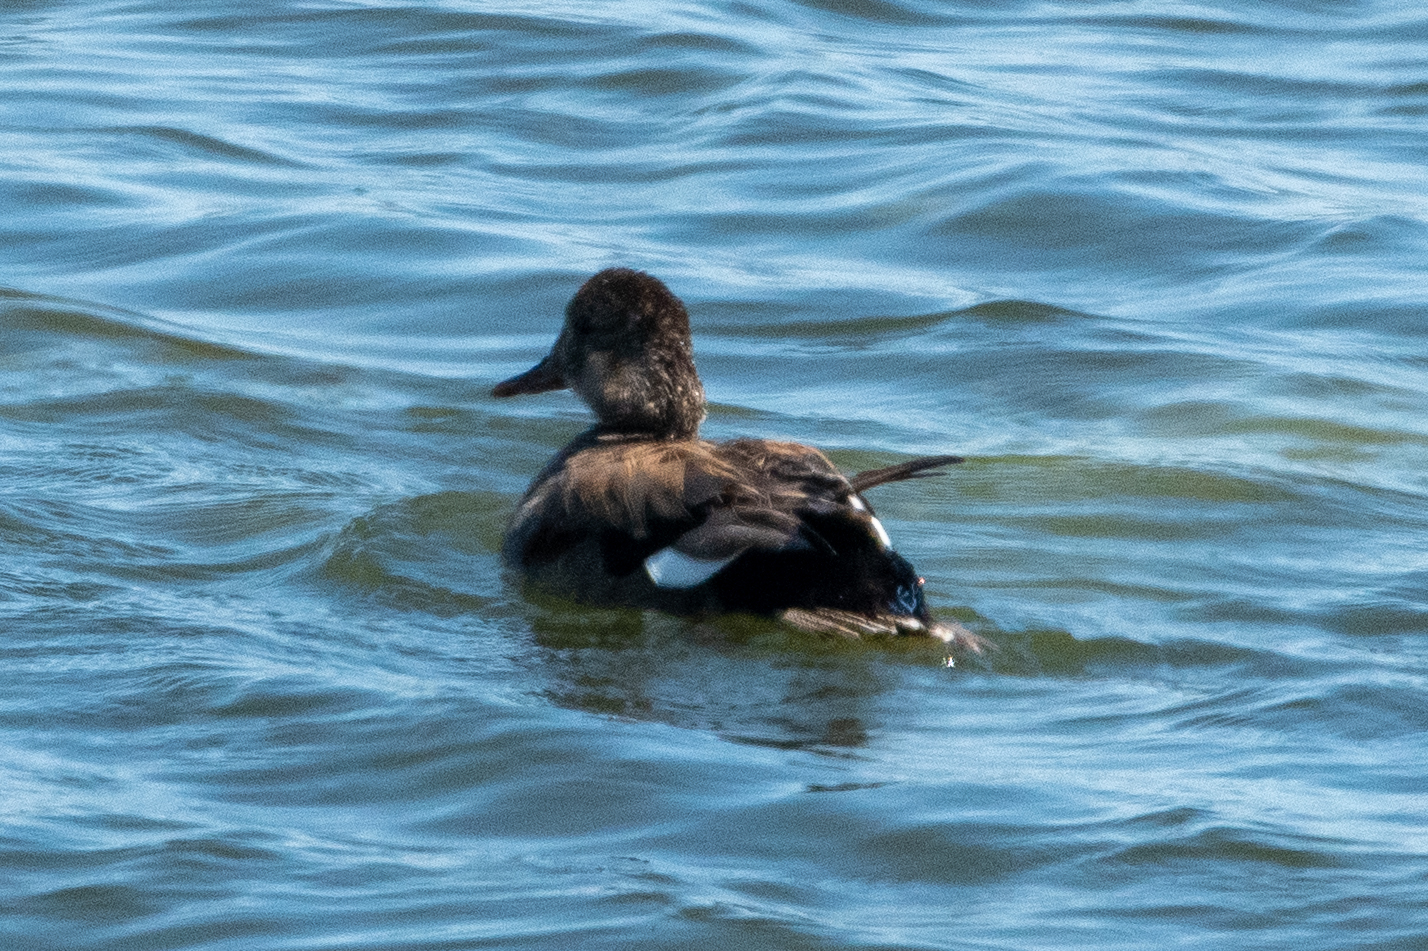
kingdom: Animalia
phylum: Chordata
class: Aves
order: Anseriformes
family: Anatidae
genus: Mareca
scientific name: Mareca strepera
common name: Gadwall
